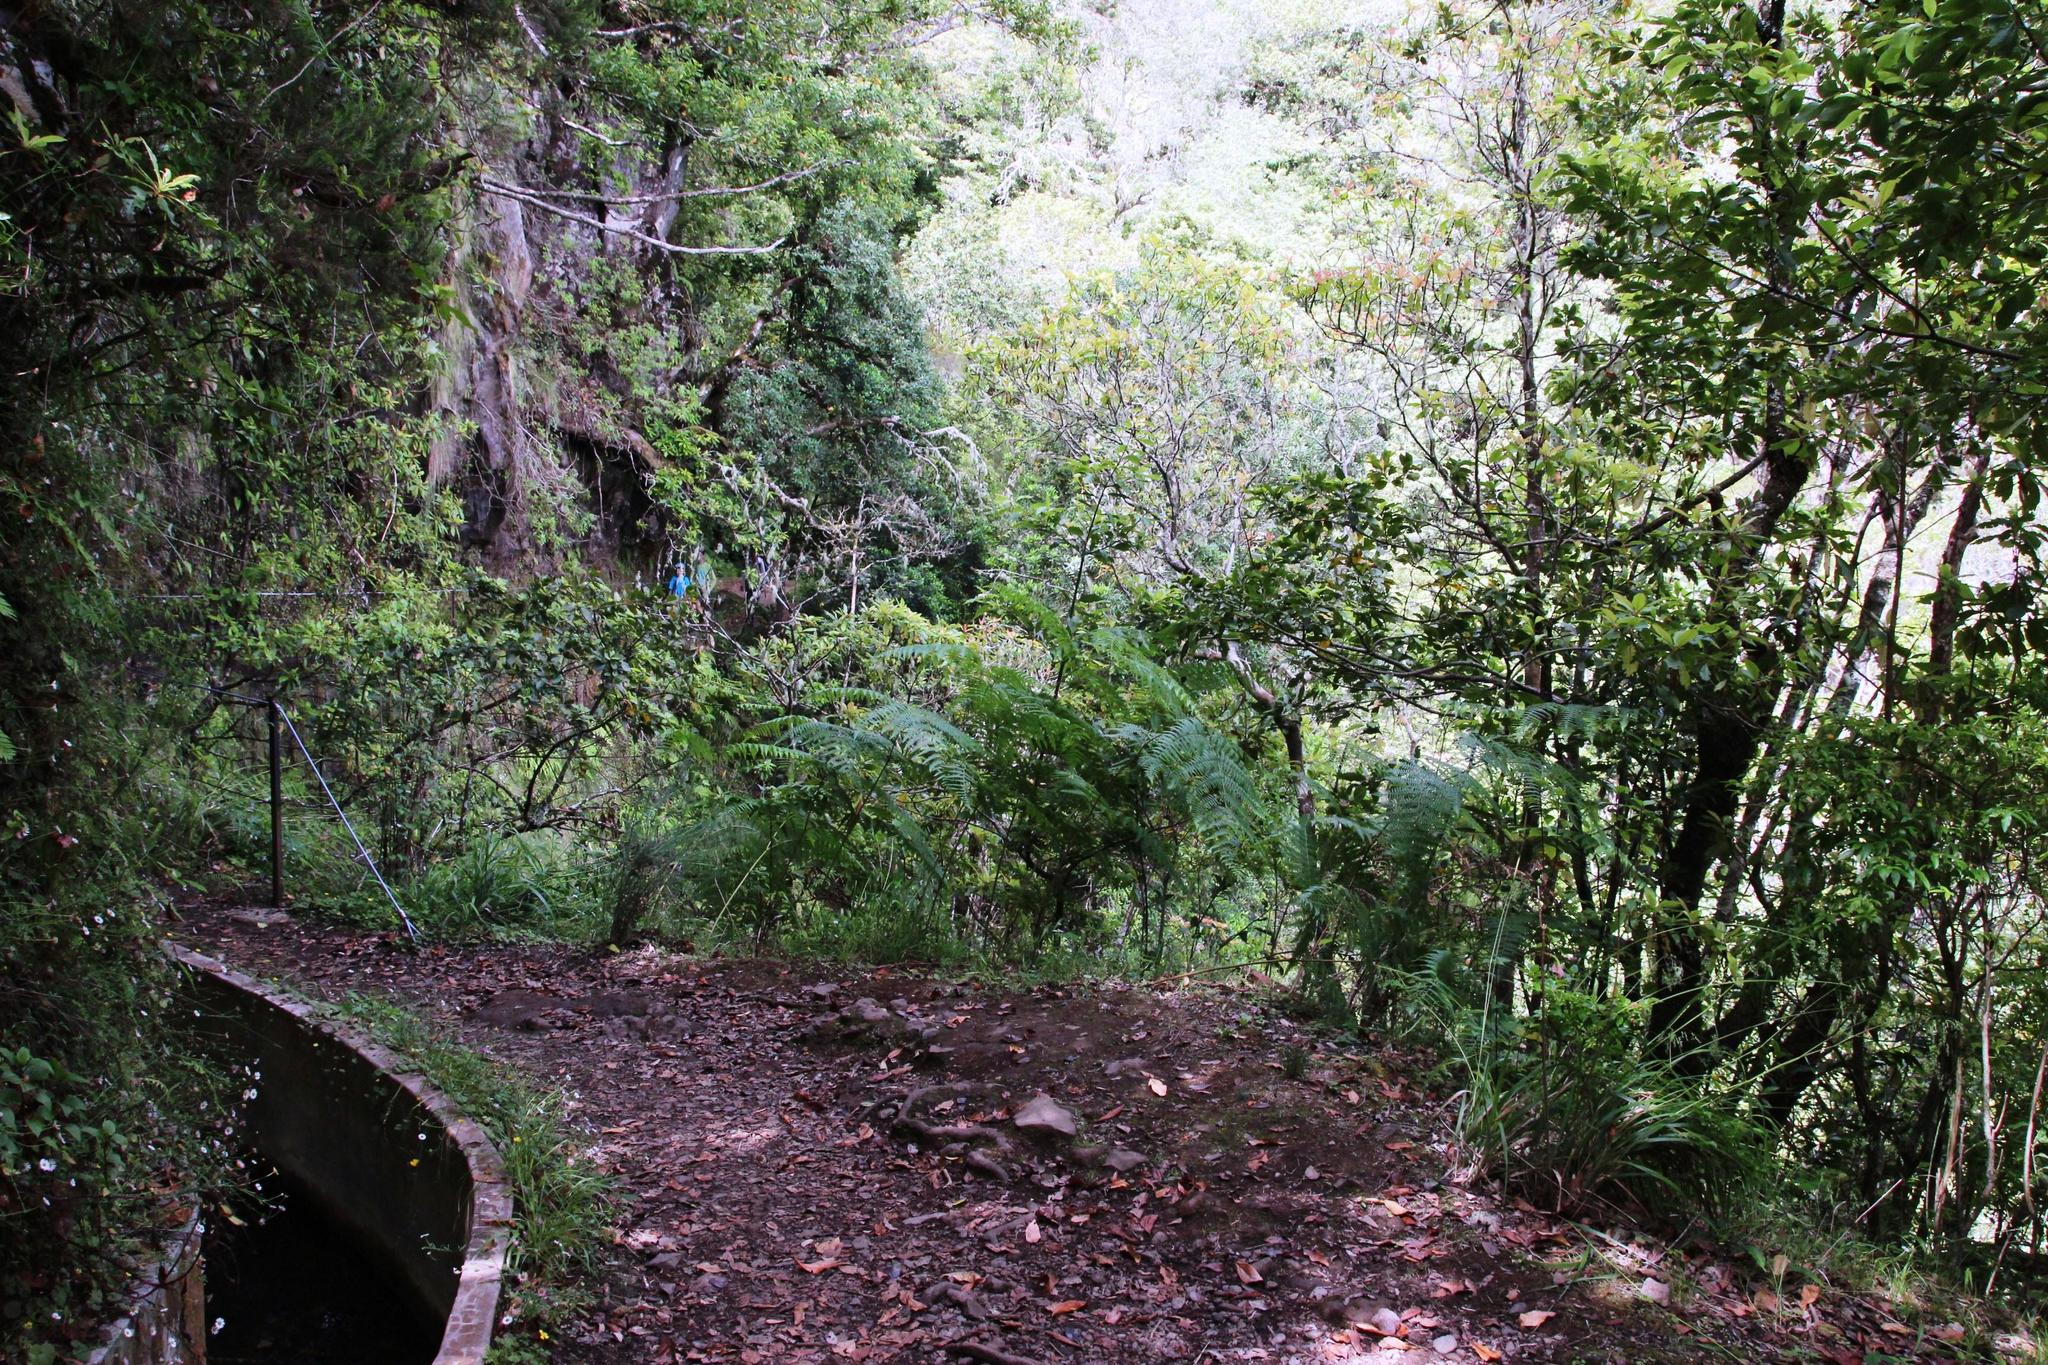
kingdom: Plantae
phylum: Tracheophyta
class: Polypodiopsida
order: Polypodiales
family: Dennstaedtiaceae
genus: Pteridium
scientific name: Pteridium aquilinum
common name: Bracken
